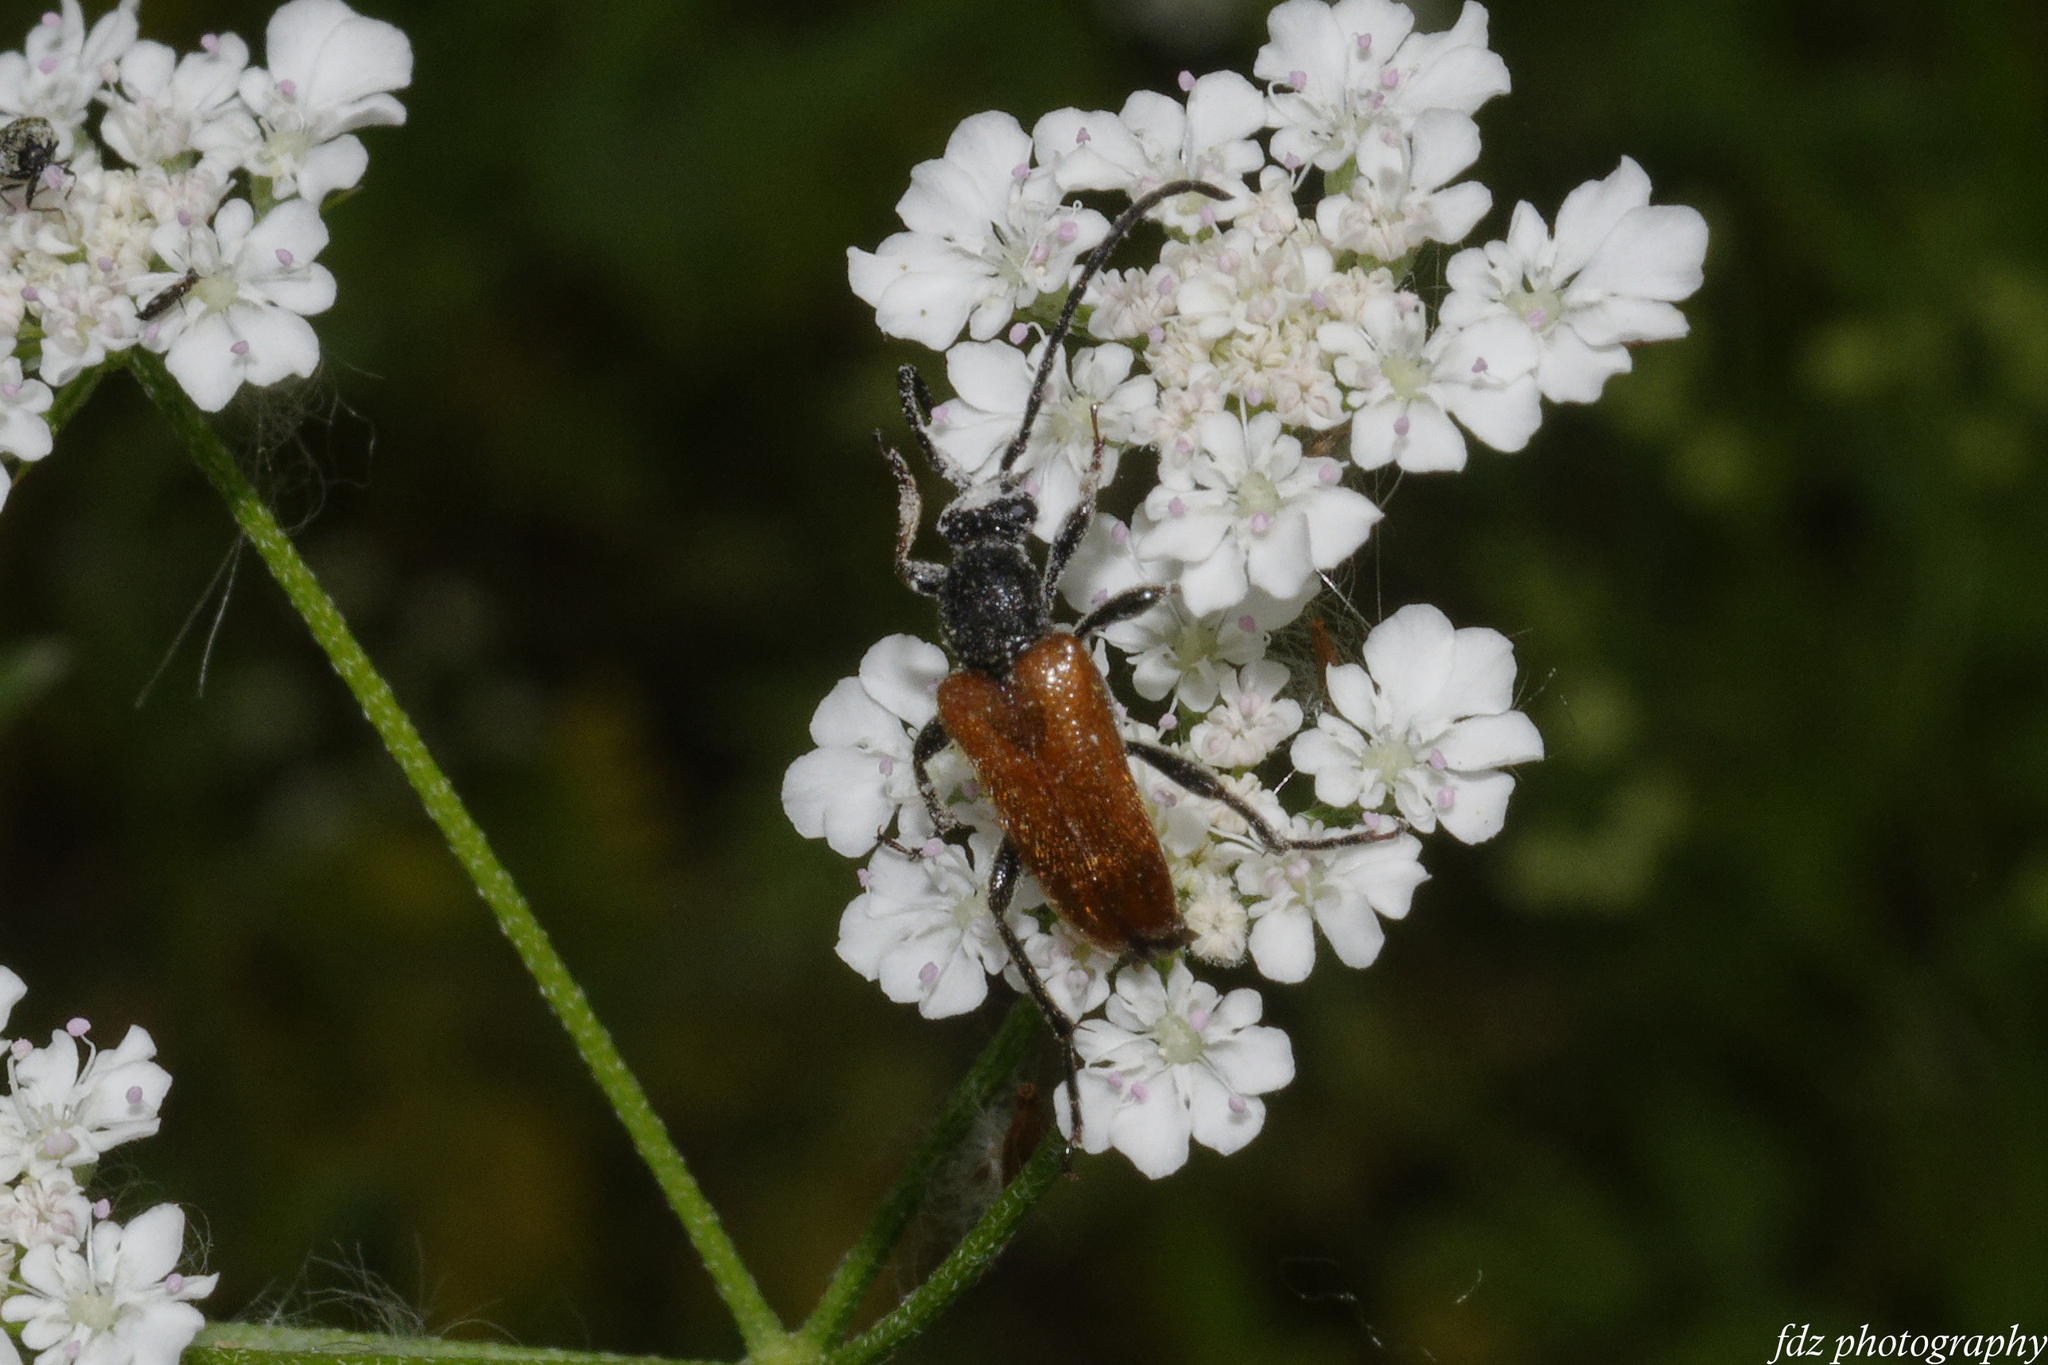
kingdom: Animalia
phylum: Arthropoda
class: Insecta
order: Coleoptera
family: Cerambycidae
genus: Pseudovadonia
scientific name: Pseudovadonia livida
